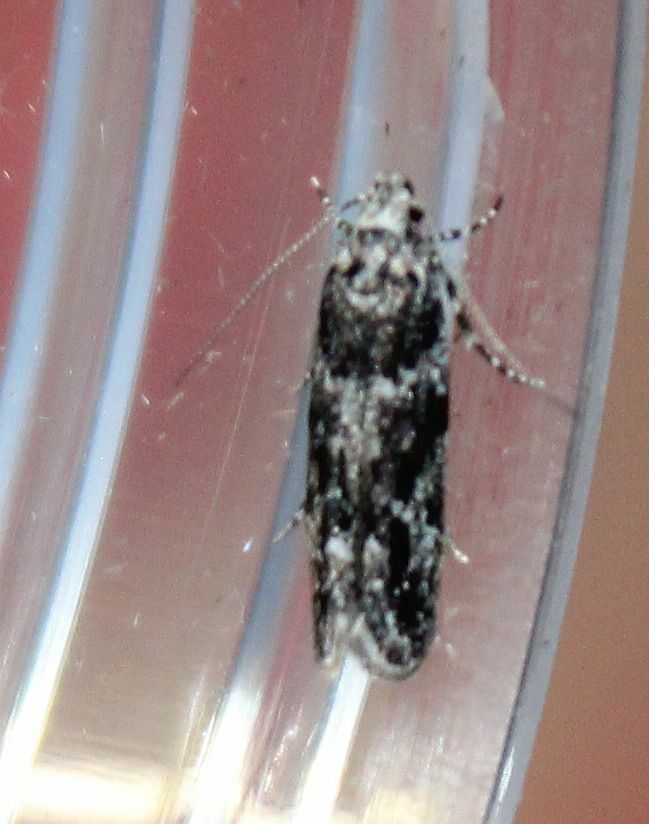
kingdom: Animalia
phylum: Arthropoda
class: Insecta
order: Lepidoptera
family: Gelechiidae
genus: Parachronistis
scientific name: Parachronistis albiceps
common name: Wood groundling
